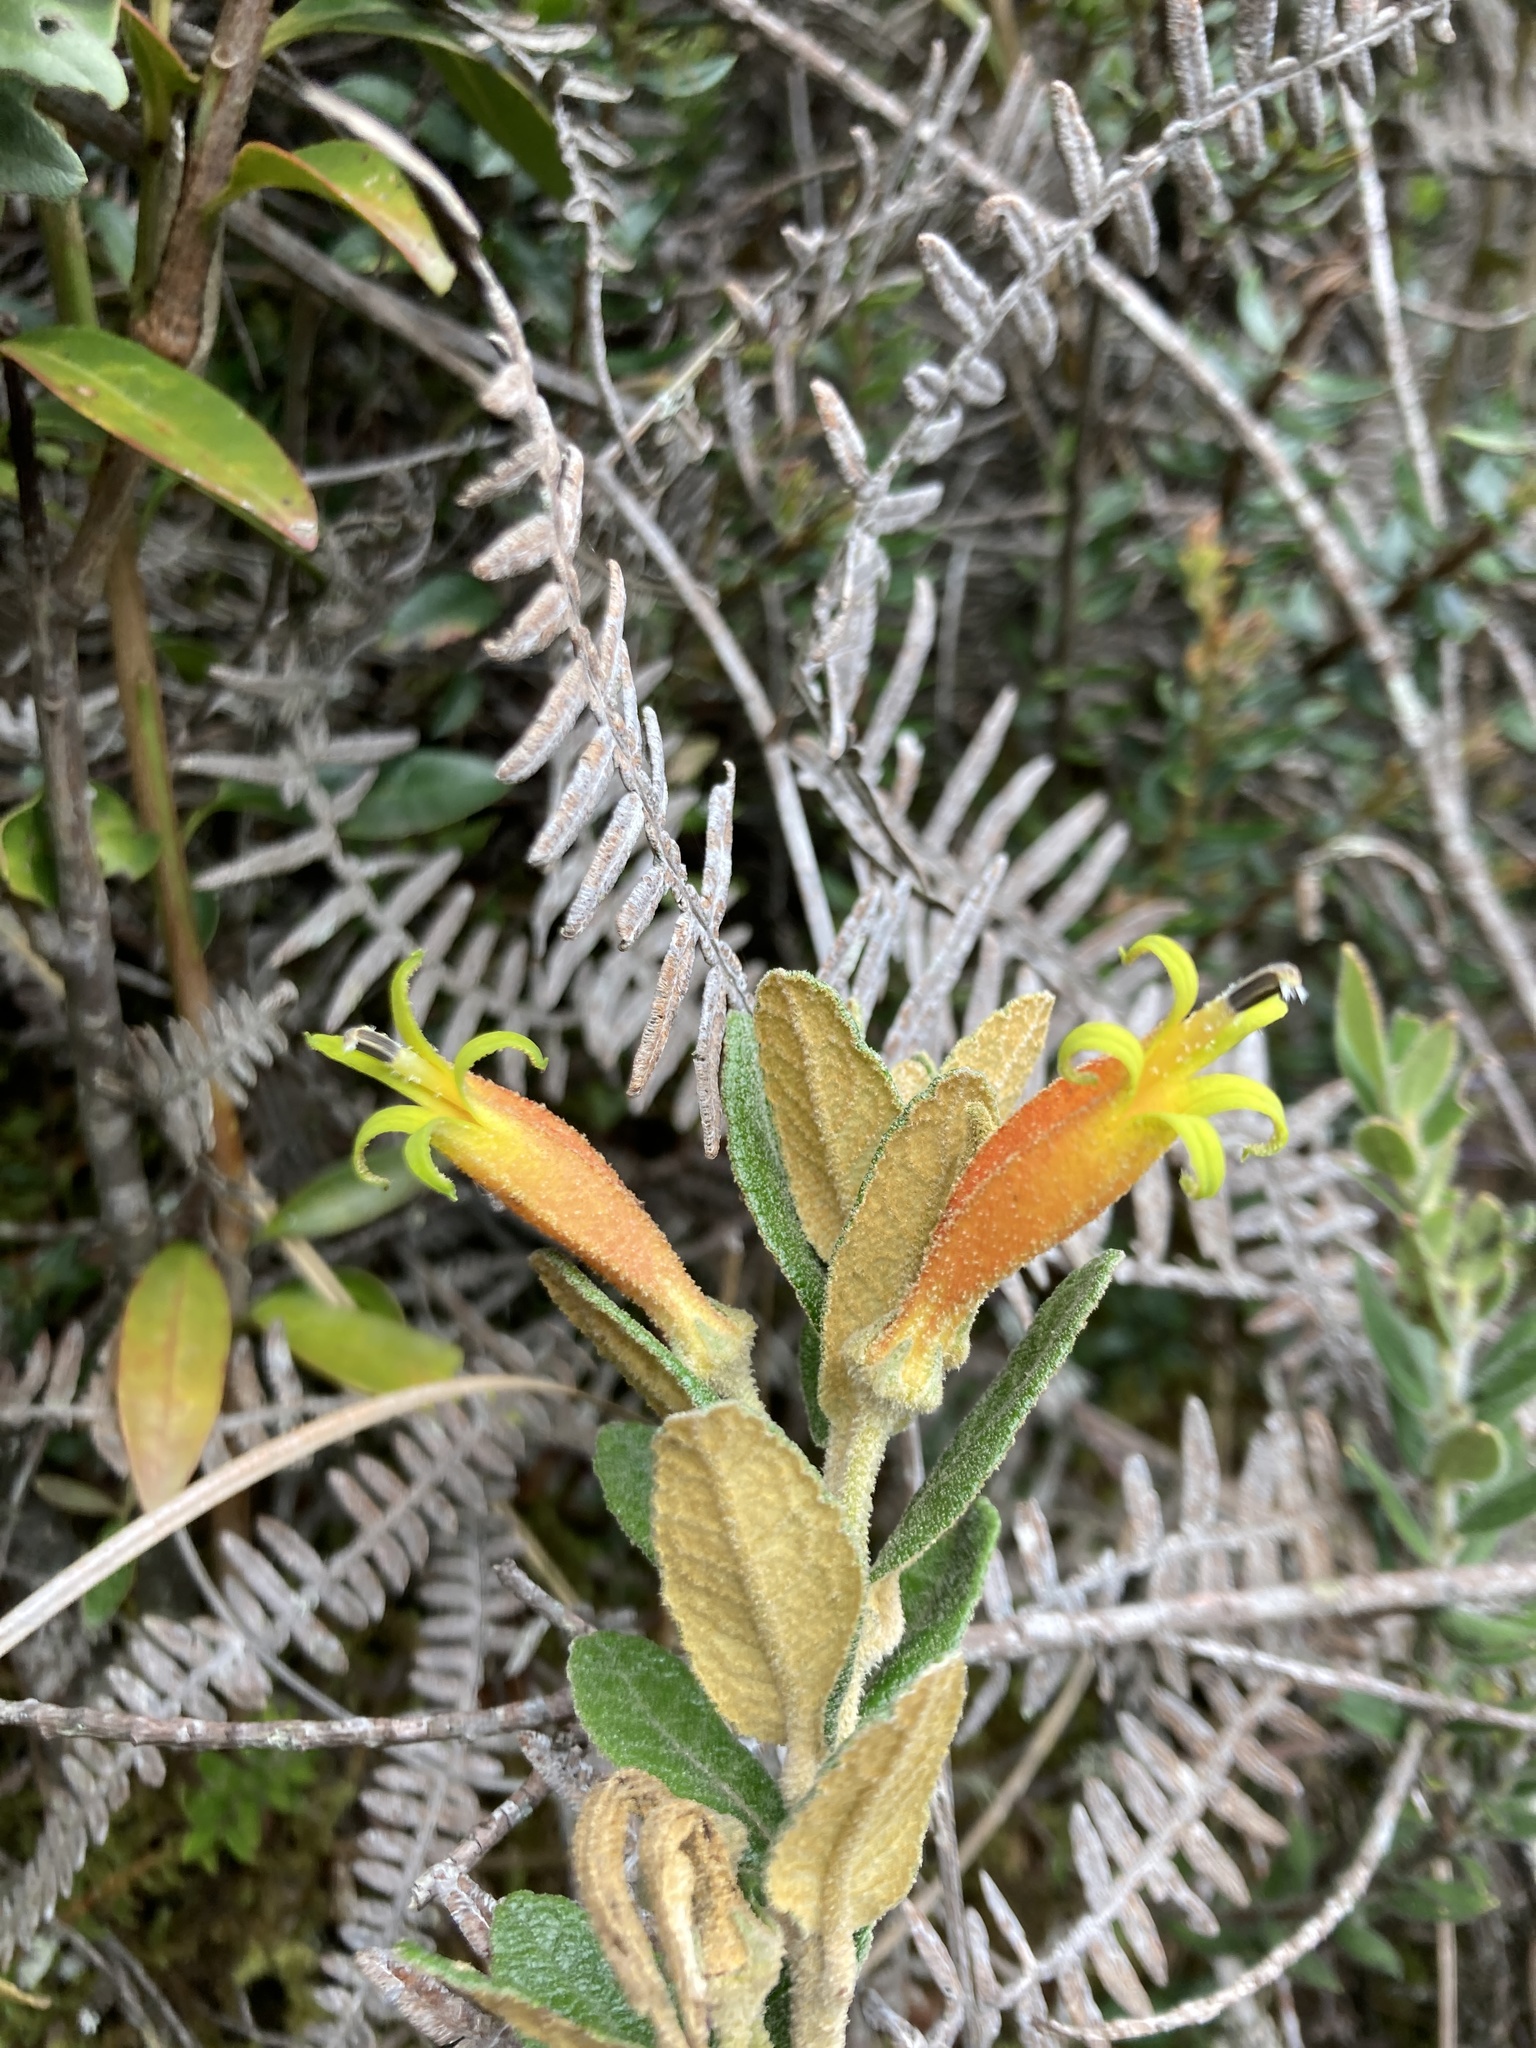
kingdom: Plantae
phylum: Tracheophyta
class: Magnoliopsida
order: Asterales
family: Campanulaceae
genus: Siphocampylus
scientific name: Siphocampylus columnae
